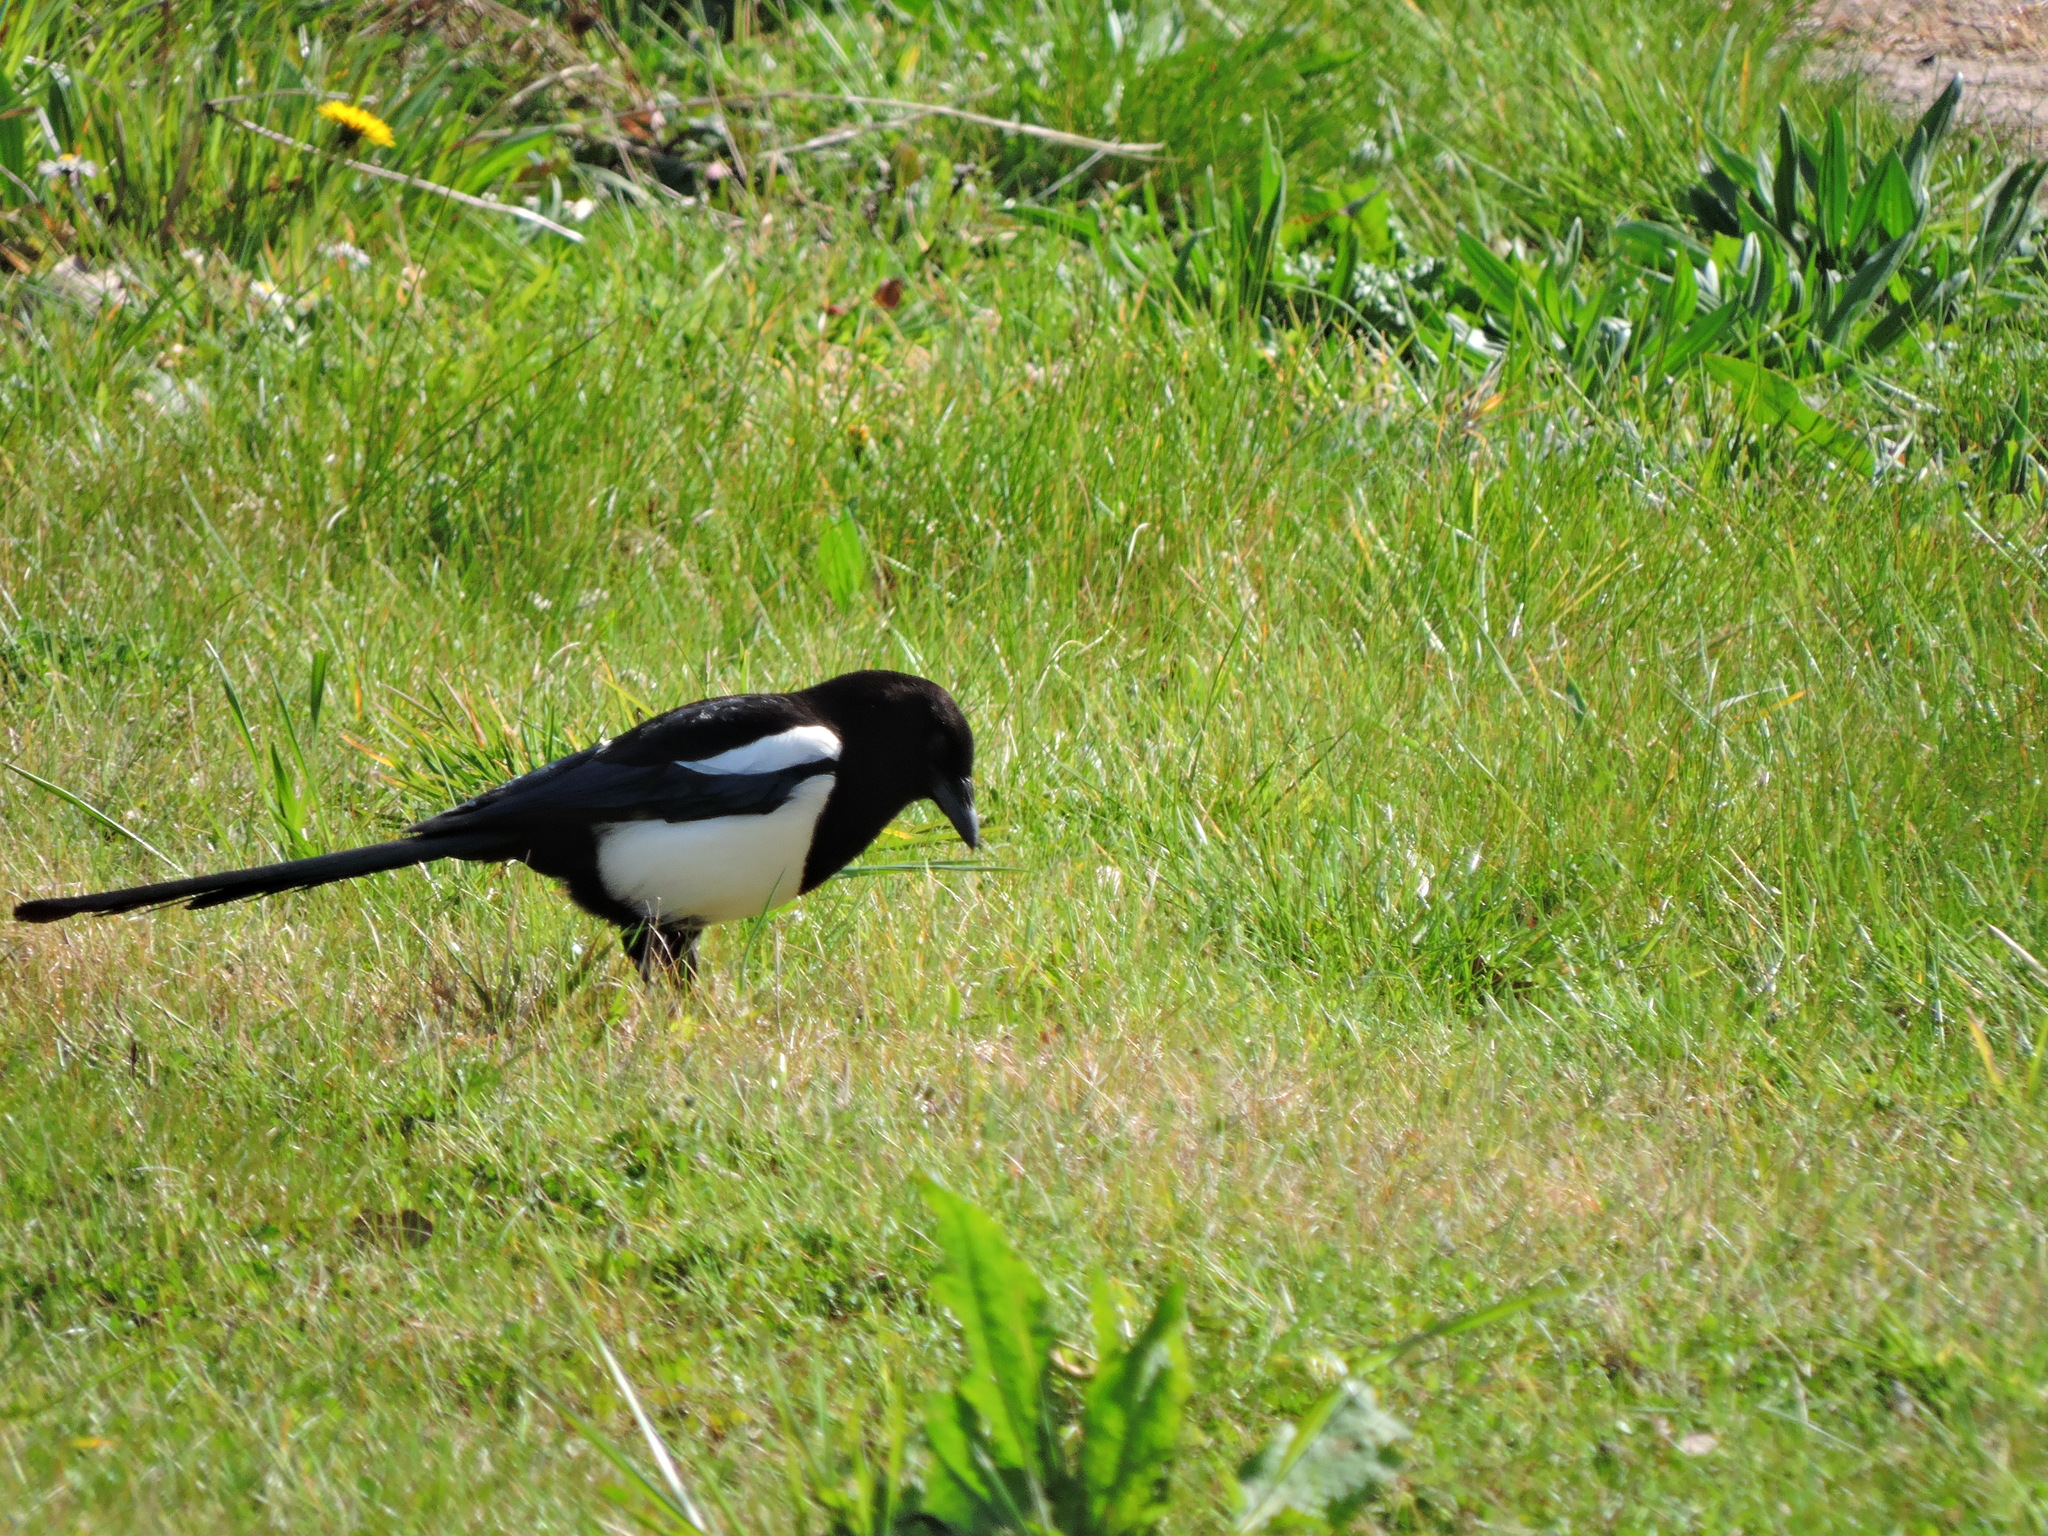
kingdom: Animalia
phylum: Chordata
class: Aves
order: Passeriformes
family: Corvidae
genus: Pica
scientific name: Pica pica
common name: Eurasian magpie
